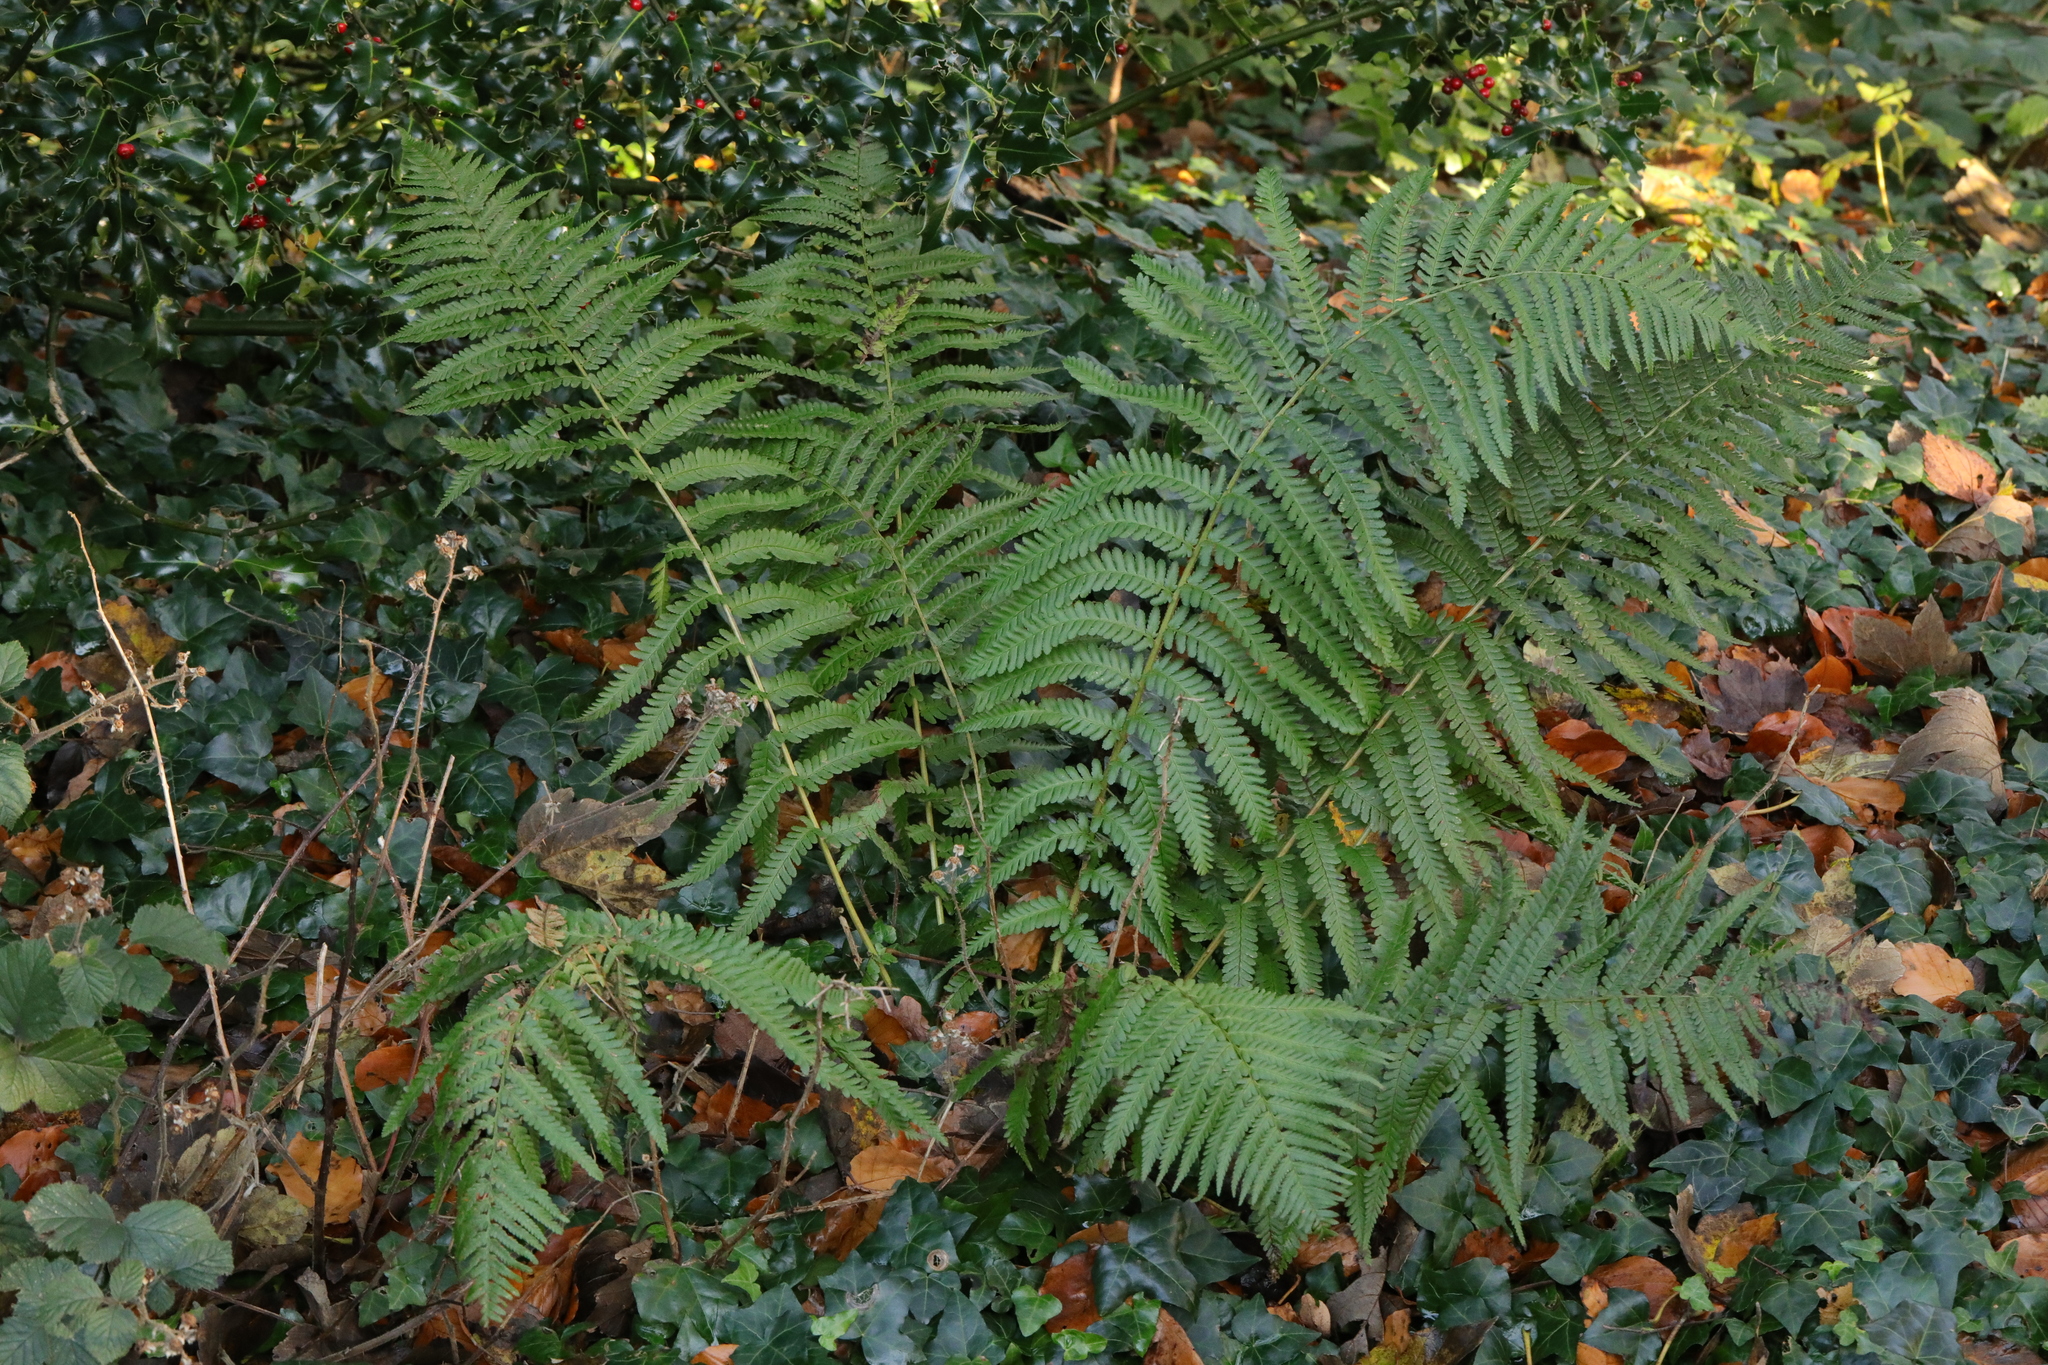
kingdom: Plantae
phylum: Tracheophyta
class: Polypodiopsida
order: Polypodiales
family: Dryopteridaceae
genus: Dryopteris
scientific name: Dryopteris filix-mas
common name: Male fern
